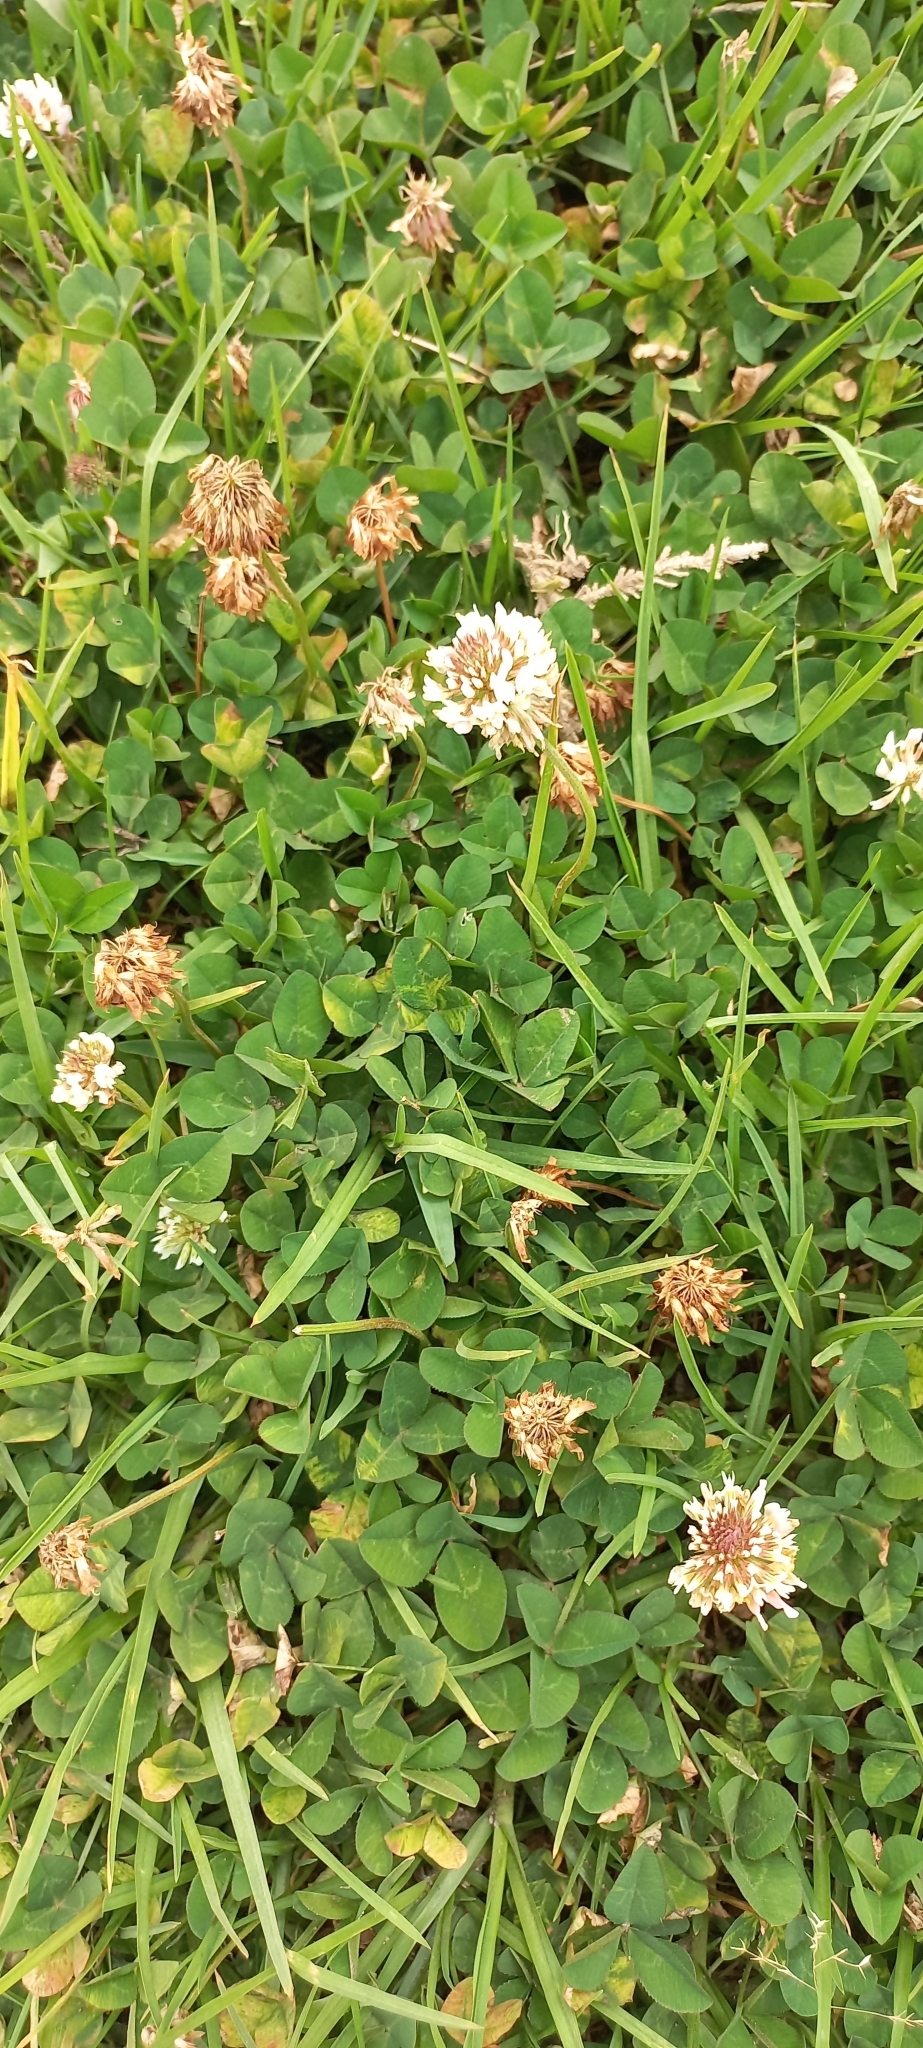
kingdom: Plantae
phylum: Tracheophyta
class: Magnoliopsida
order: Fabales
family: Fabaceae
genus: Trifolium
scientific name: Trifolium repens
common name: White clover
